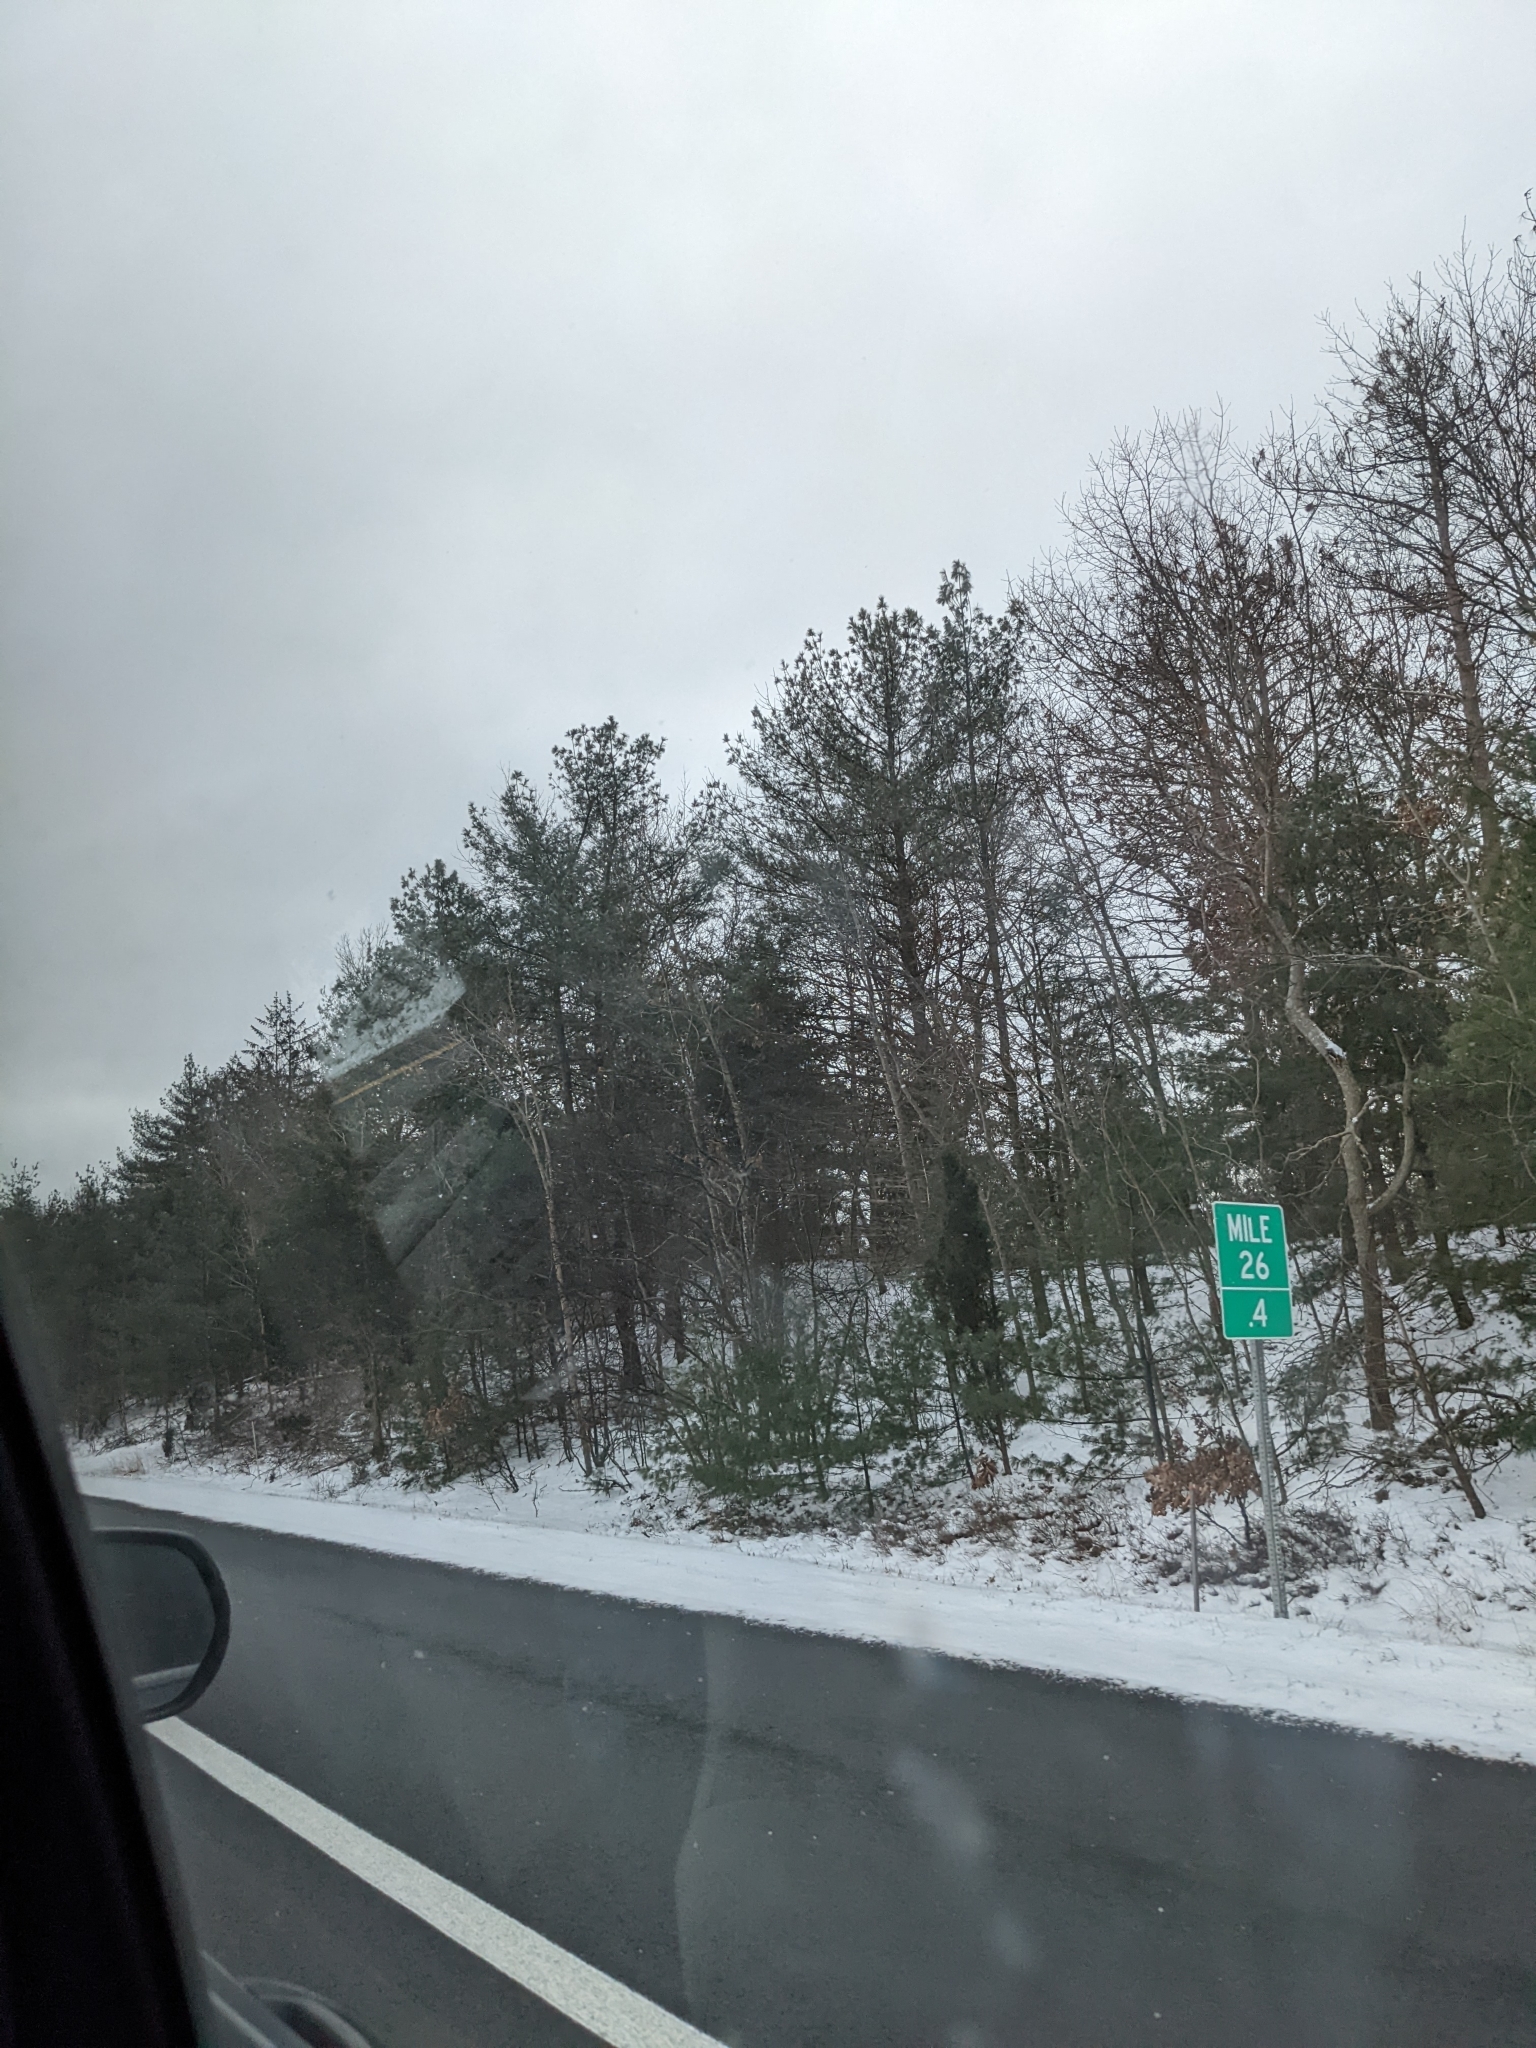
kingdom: Plantae
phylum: Tracheophyta
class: Pinopsida
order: Pinales
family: Pinaceae
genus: Pinus
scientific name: Pinus strobus
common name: Weymouth pine
